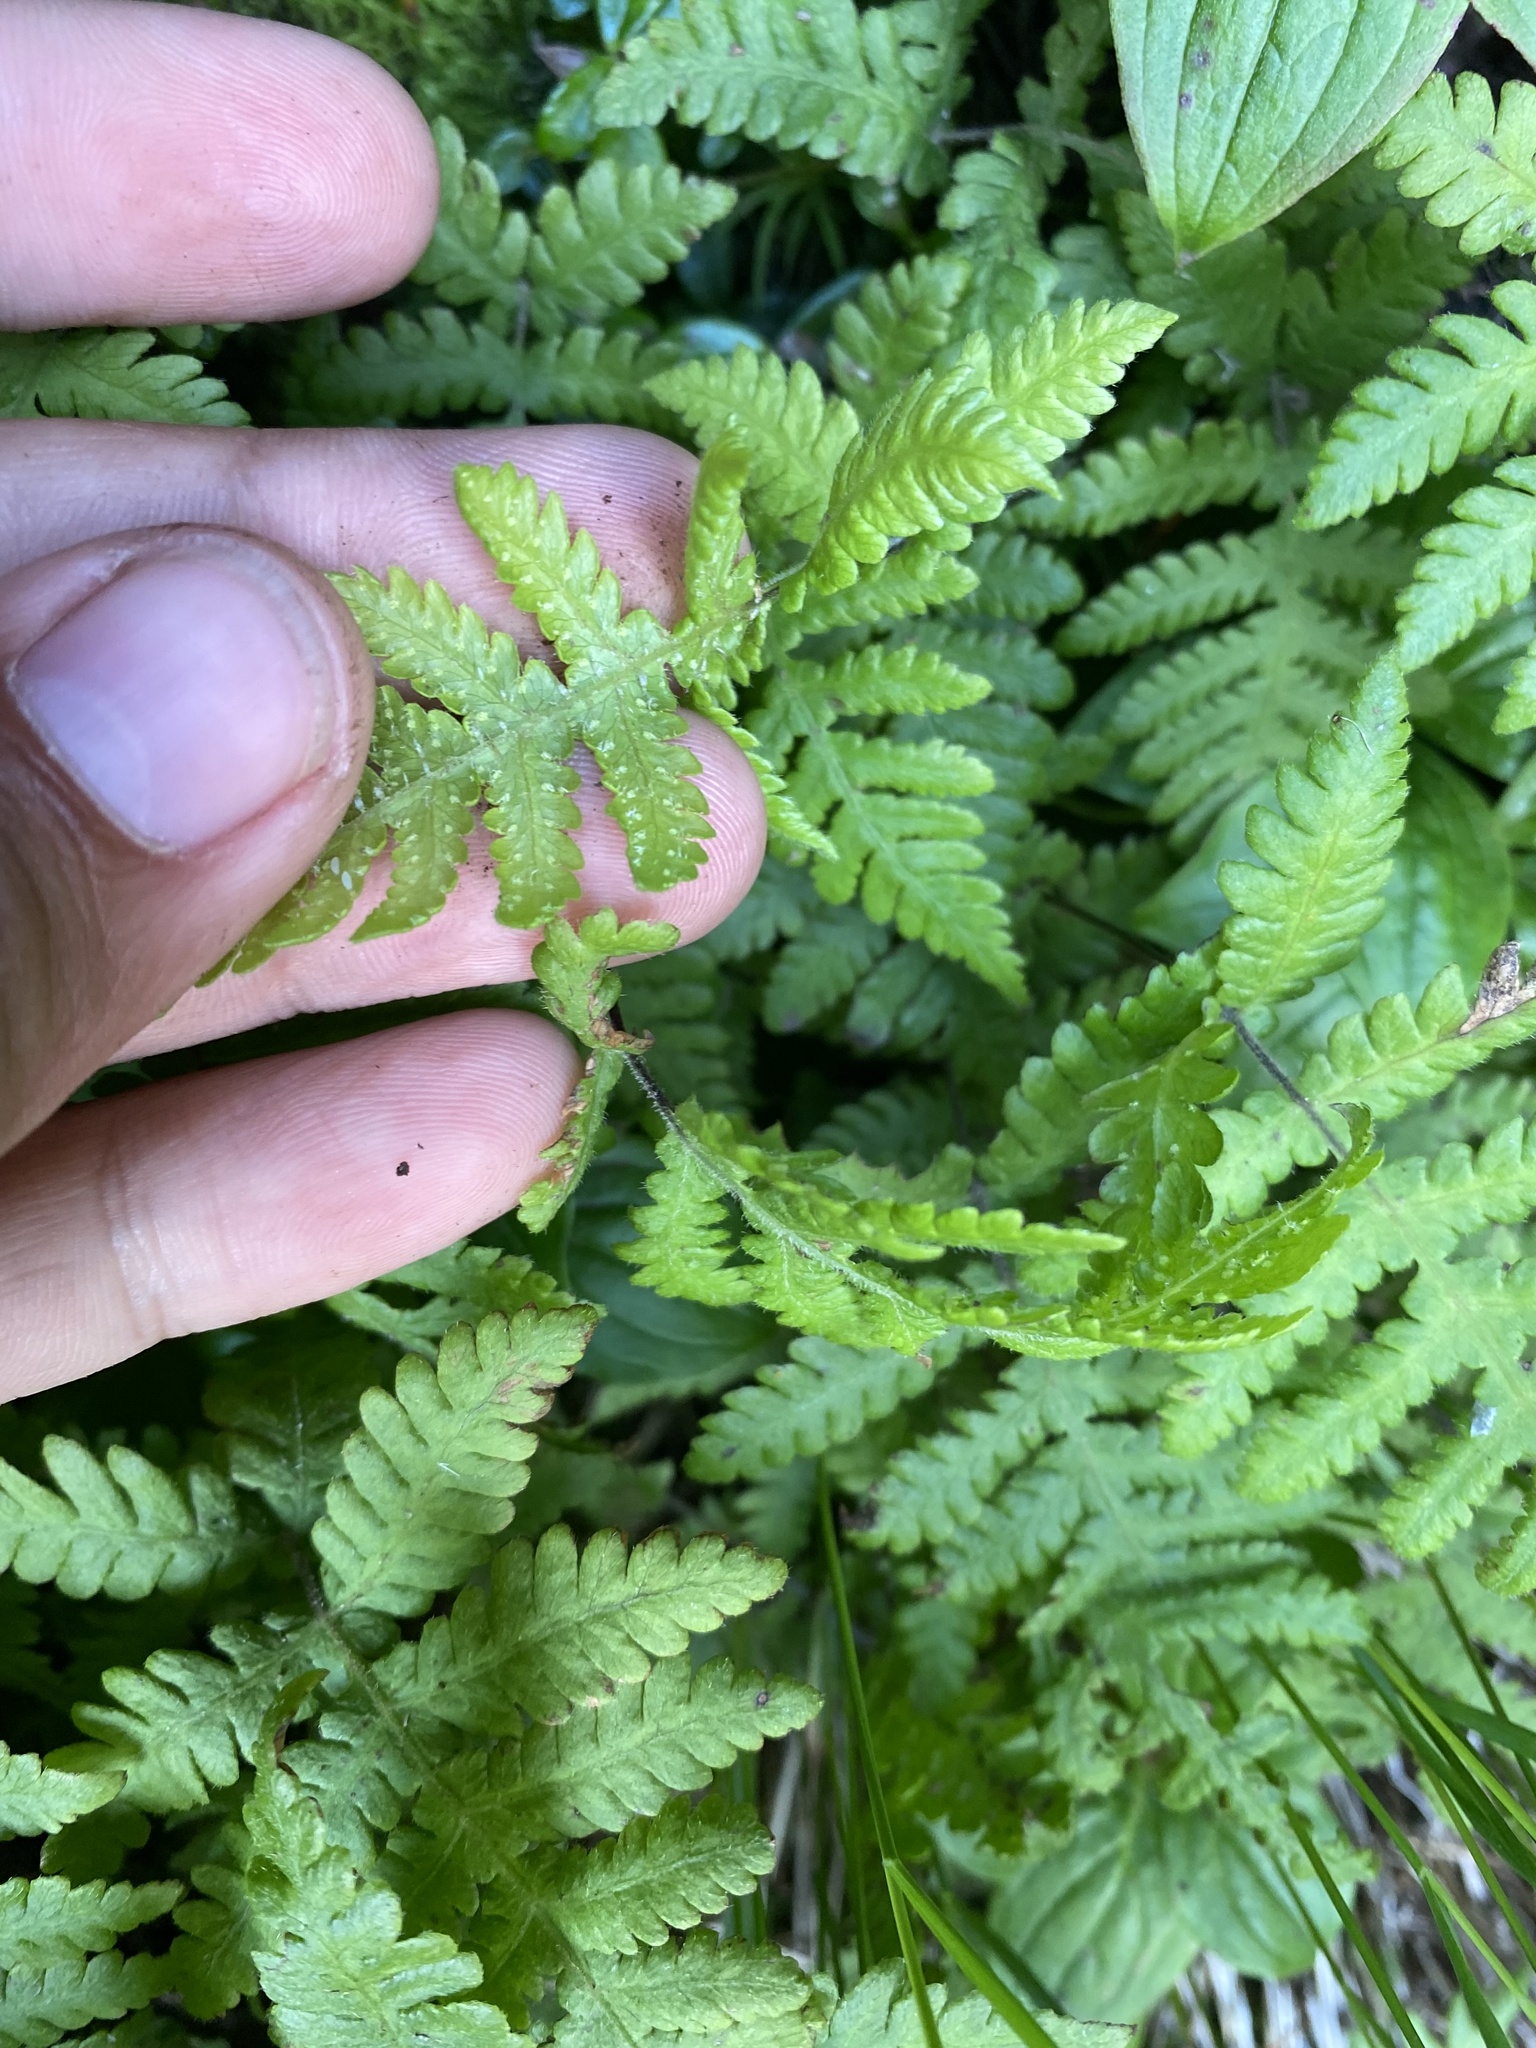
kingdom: Plantae
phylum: Tracheophyta
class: Polypodiopsida
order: Polypodiales
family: Thelypteridaceae
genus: Phegopteris
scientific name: Phegopteris connectilis
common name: Beech fern
